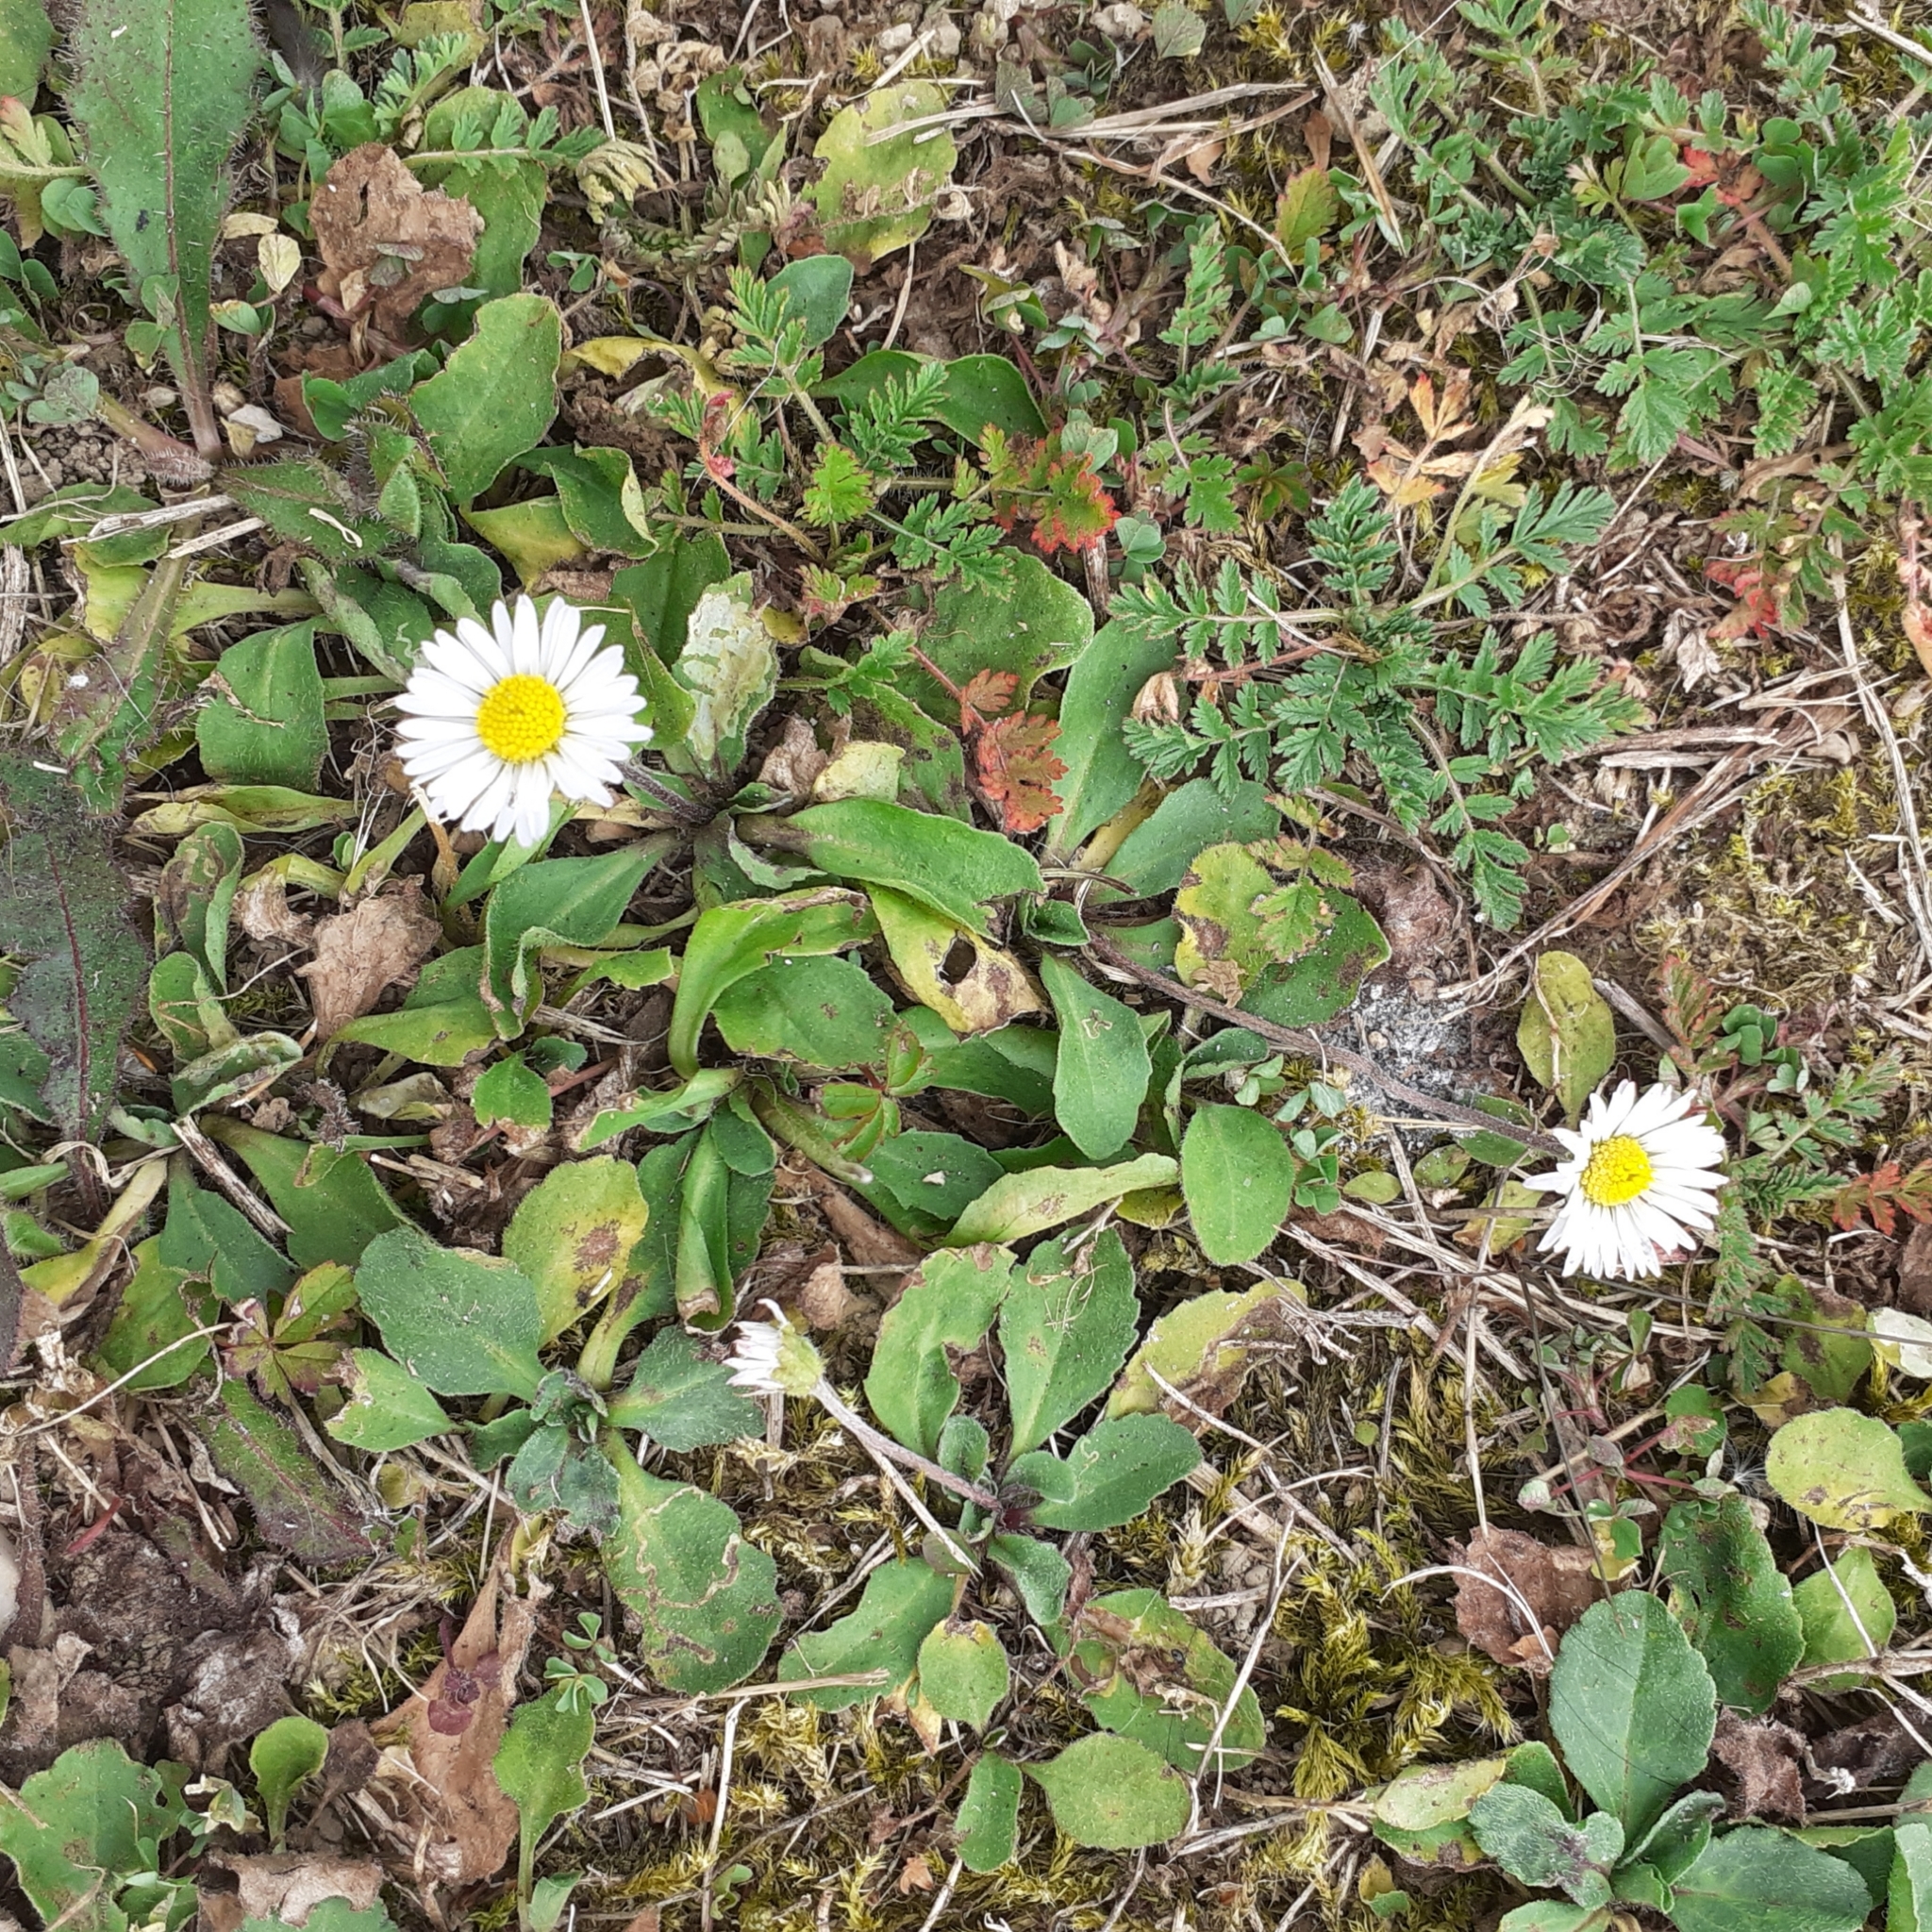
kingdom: Plantae
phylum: Tracheophyta
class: Magnoliopsida
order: Asterales
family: Asteraceae
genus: Bellis
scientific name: Bellis perennis
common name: Lawndaisy
